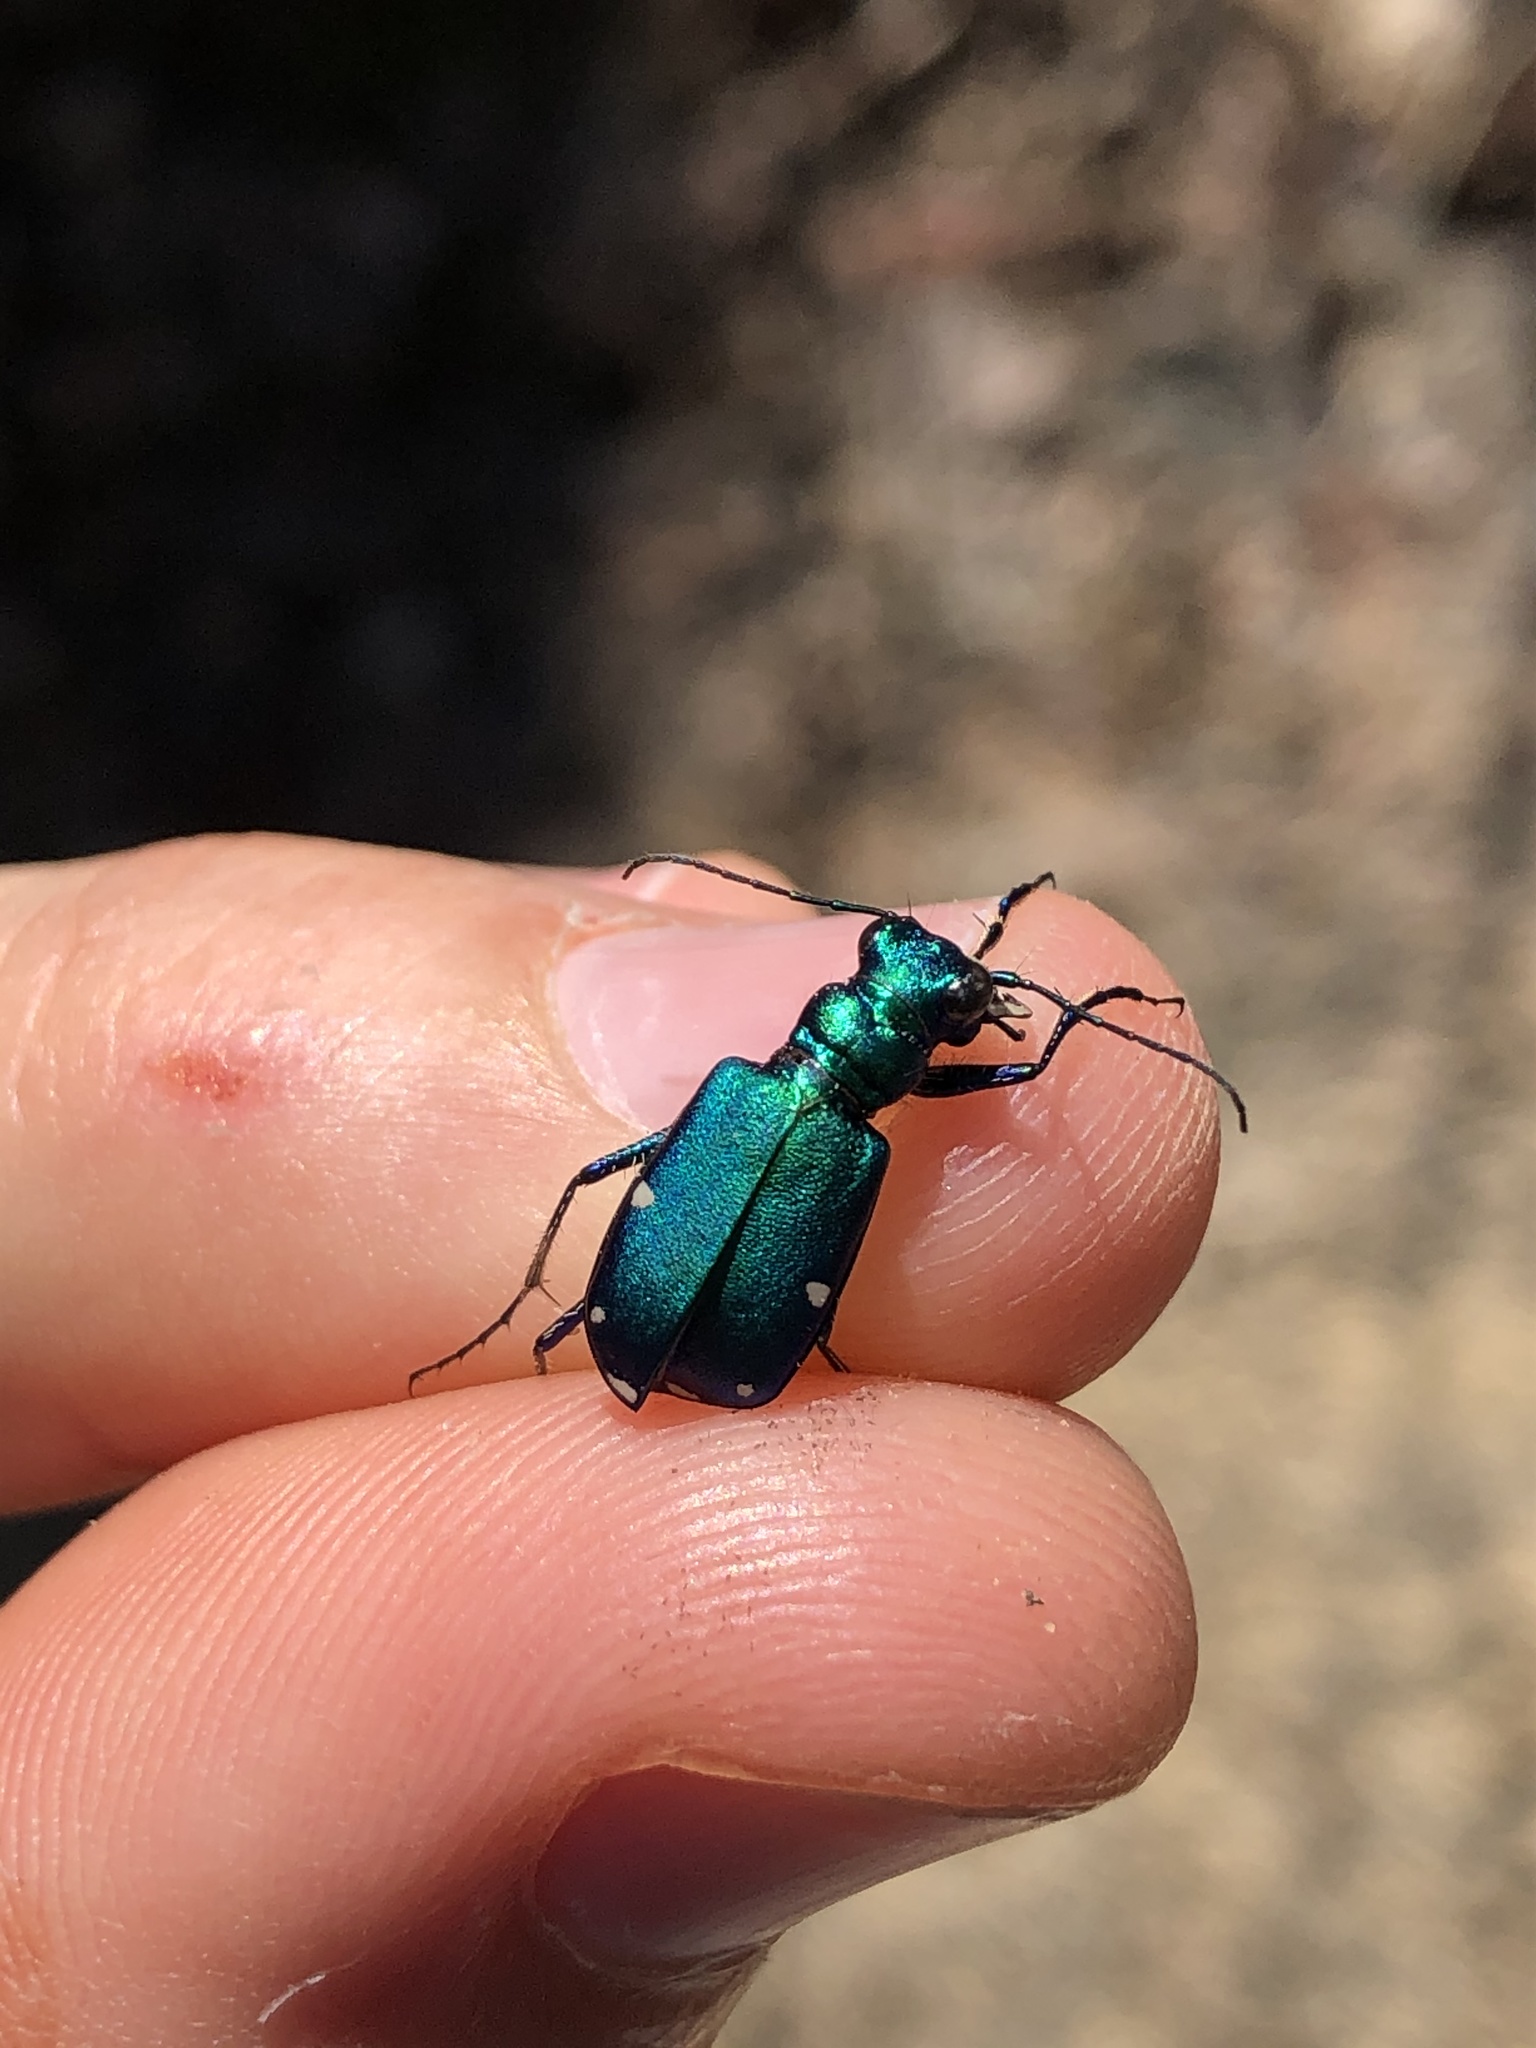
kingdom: Animalia
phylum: Arthropoda
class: Insecta
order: Coleoptera
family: Carabidae
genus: Cicindela
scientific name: Cicindela sexguttata
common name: Six-spotted tiger beetle
